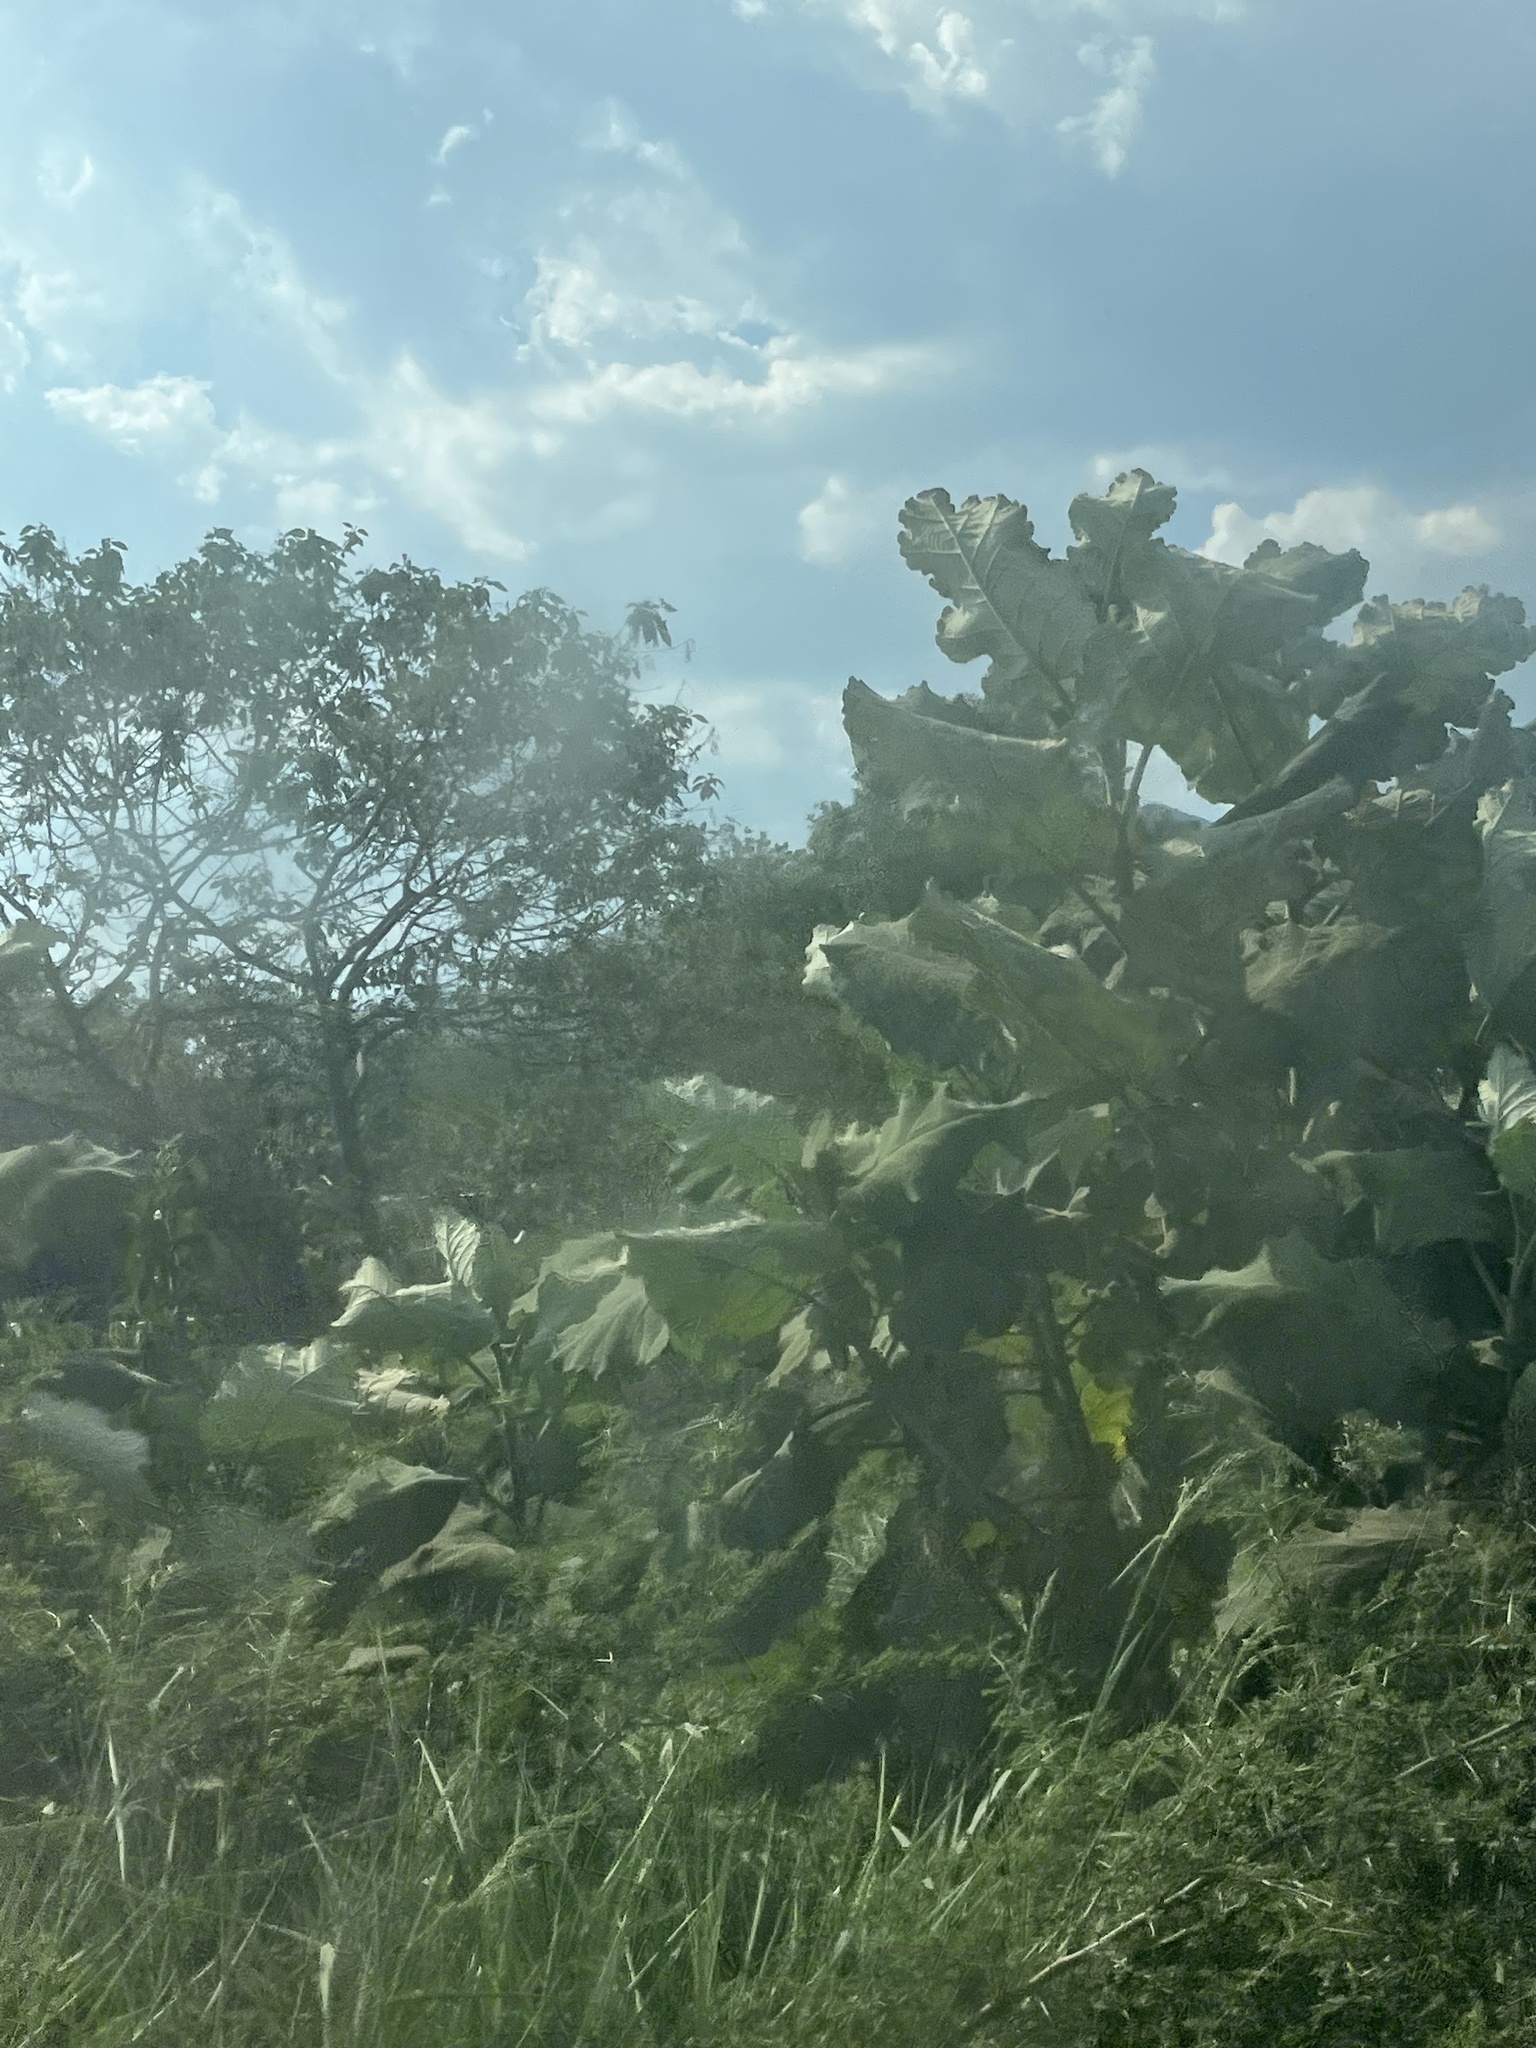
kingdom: Plantae
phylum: Tracheophyta
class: Magnoliopsida
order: Boraginales
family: Namaceae
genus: Wigandia
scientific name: Wigandia urens
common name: Caracus wigandia
